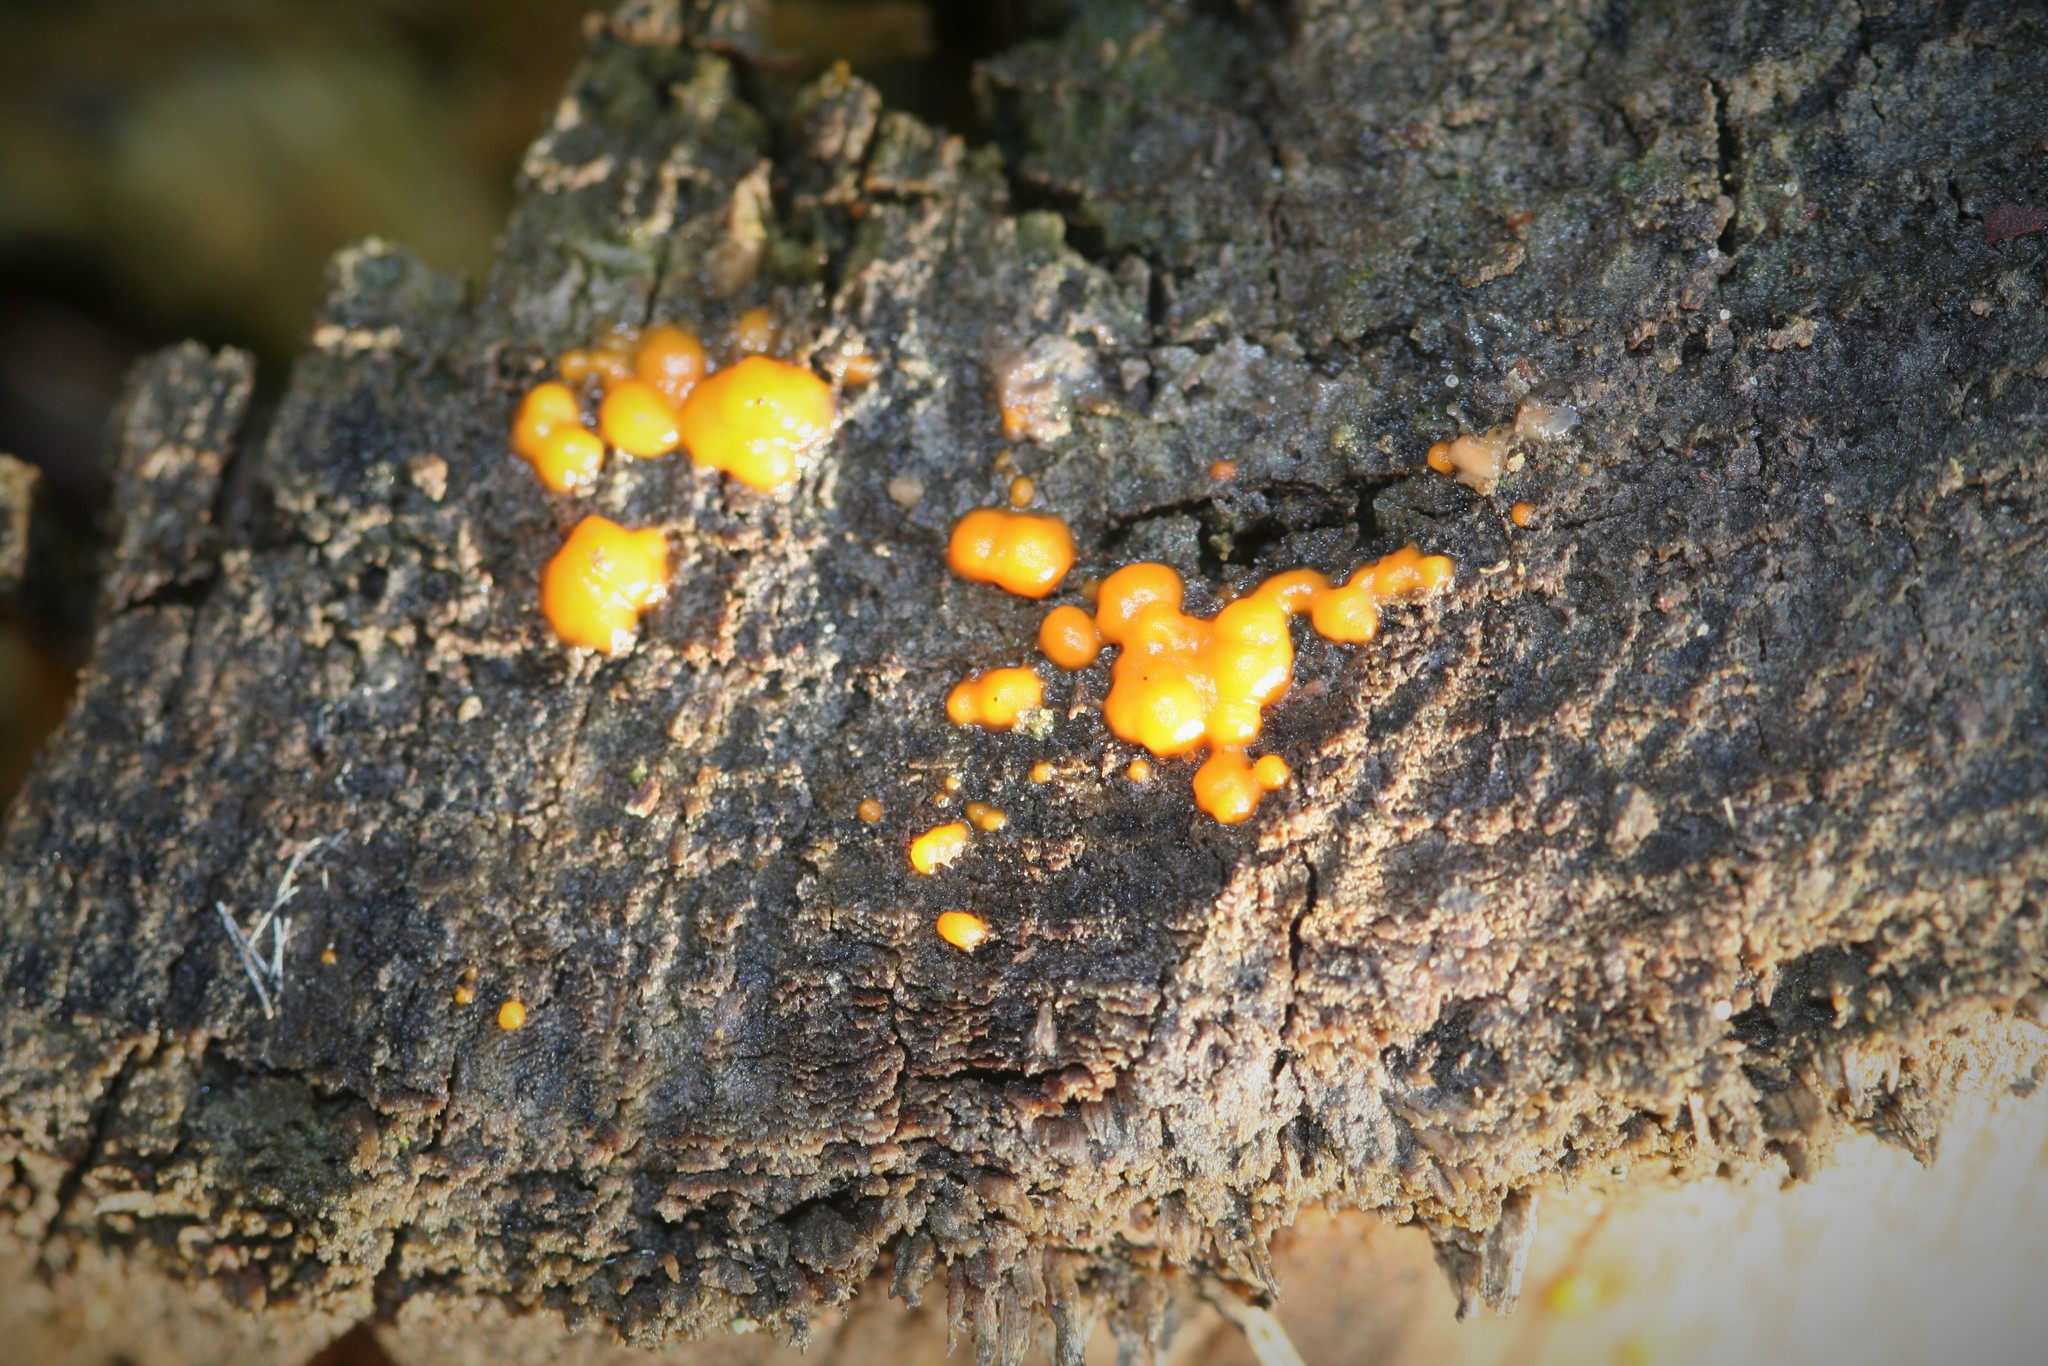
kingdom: Fungi
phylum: Basidiomycota
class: Dacrymycetes
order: Dacrymycetales
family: Dacrymycetaceae
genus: Dacrymyces
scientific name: Dacrymyces stillatus
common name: Common jelly spot
